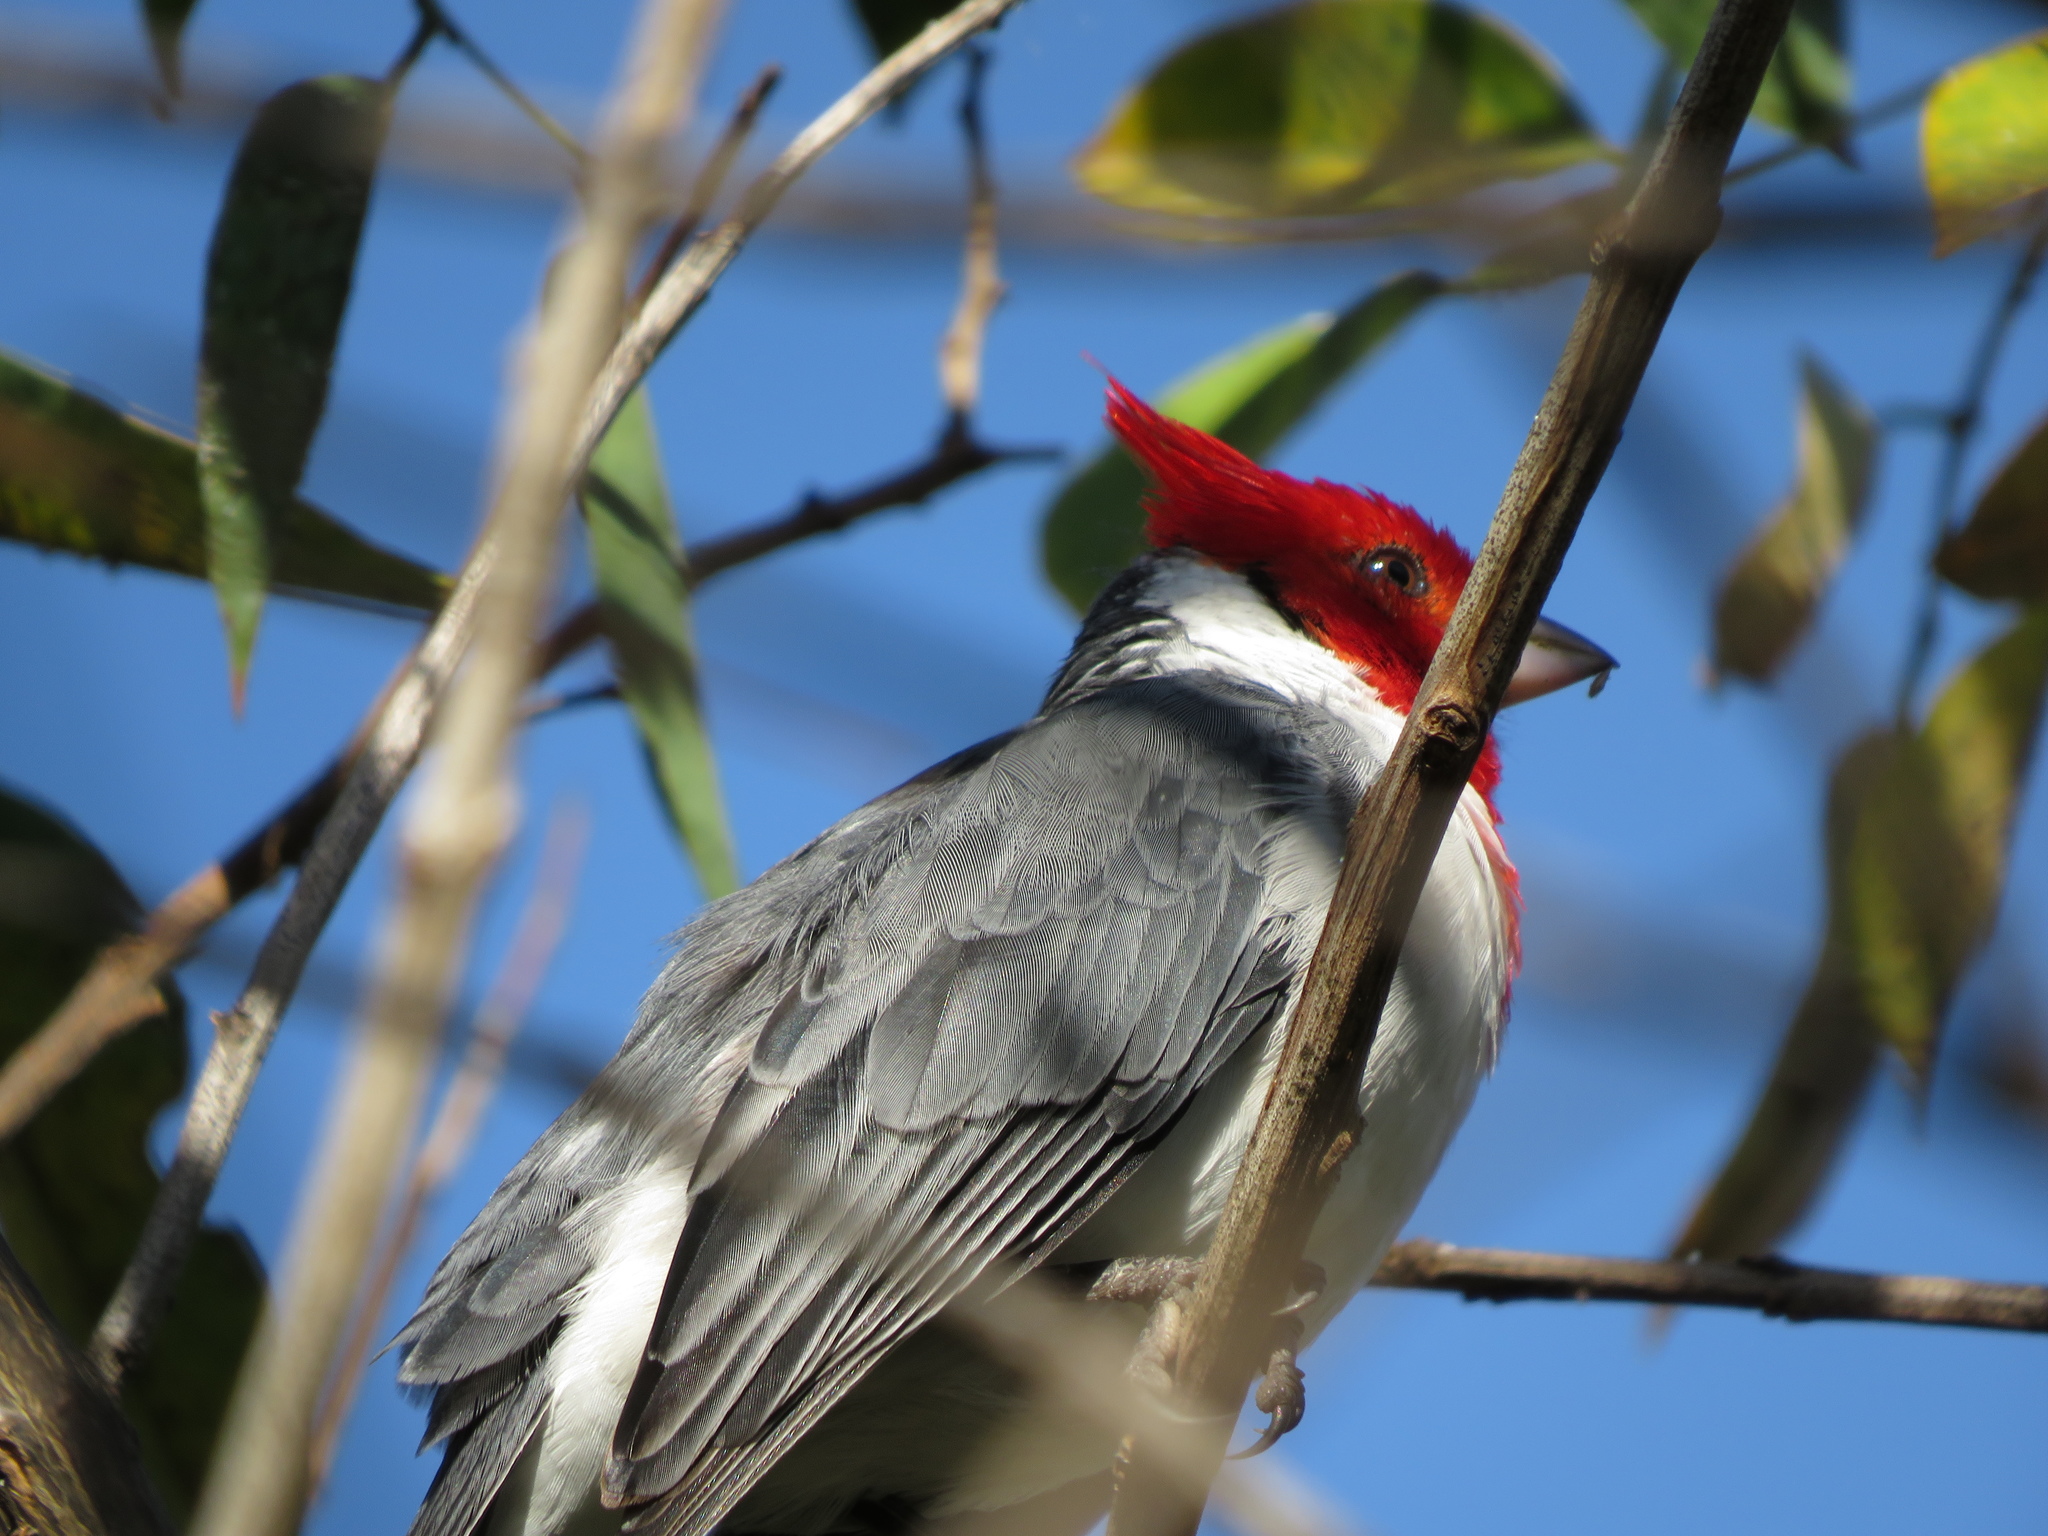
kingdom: Animalia
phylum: Chordata
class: Aves
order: Passeriformes
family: Thraupidae
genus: Paroaria
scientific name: Paroaria coronata
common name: Red-crested cardinal
